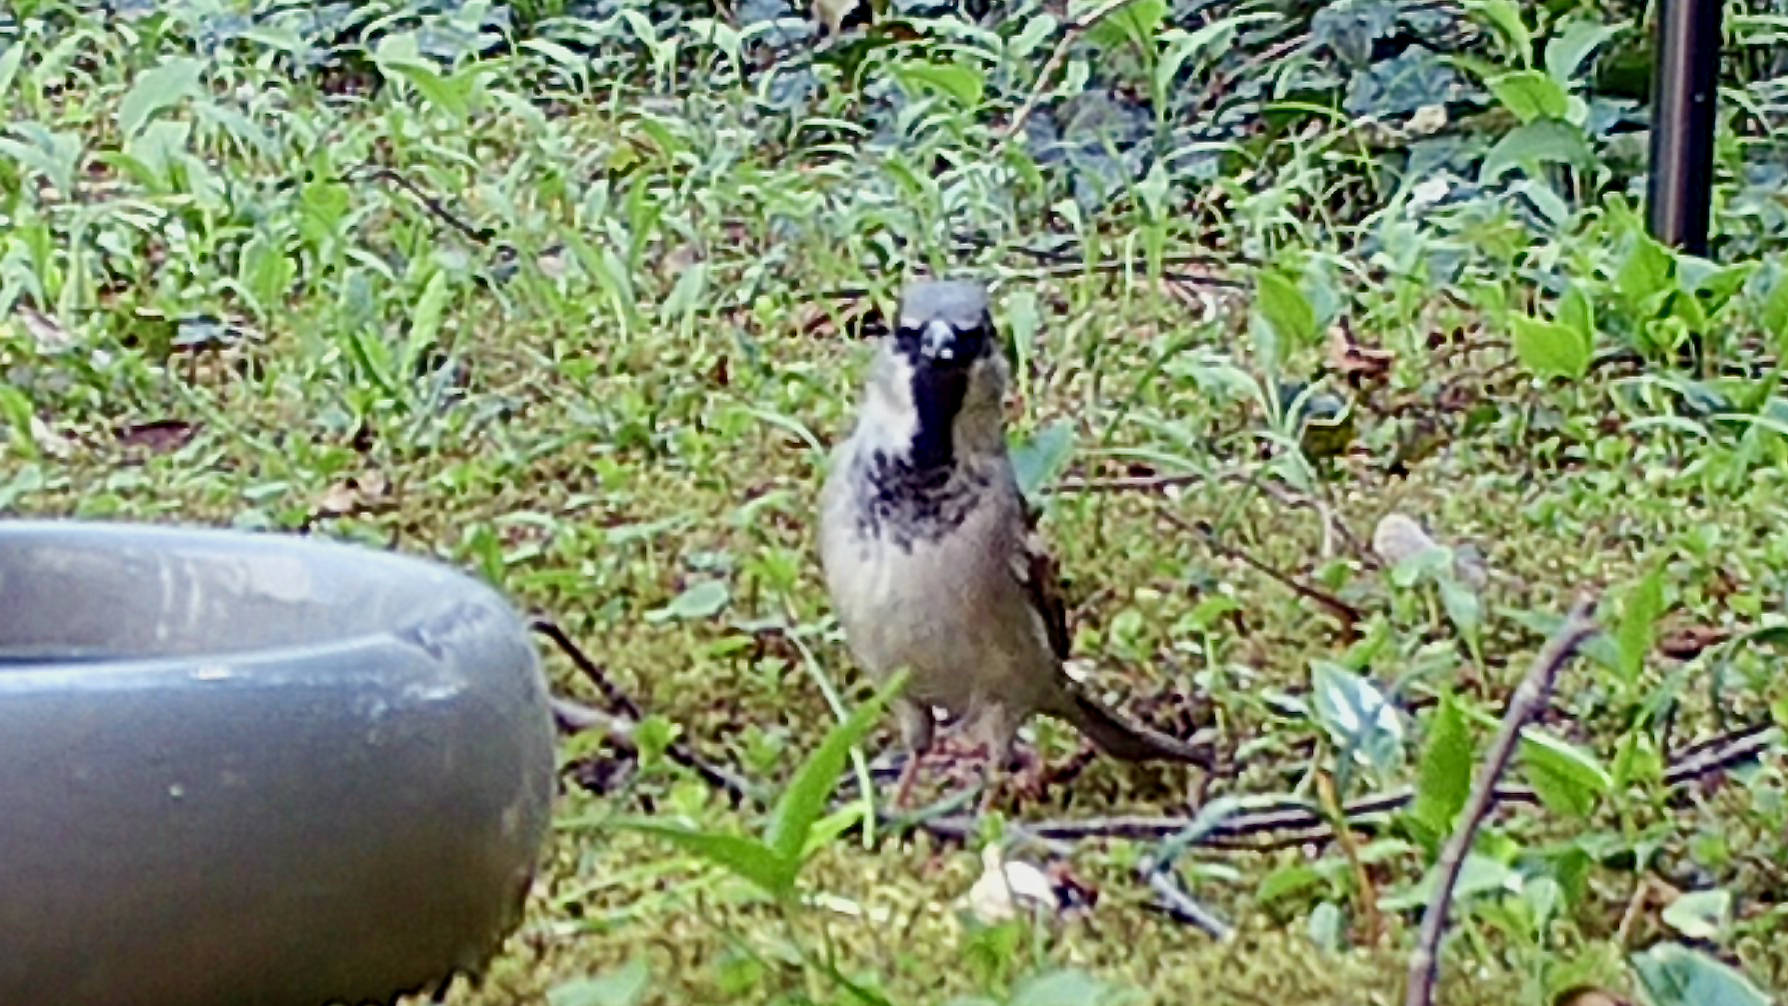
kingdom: Animalia
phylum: Chordata
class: Aves
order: Passeriformes
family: Passeridae
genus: Passer
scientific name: Passer domesticus
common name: House sparrow
